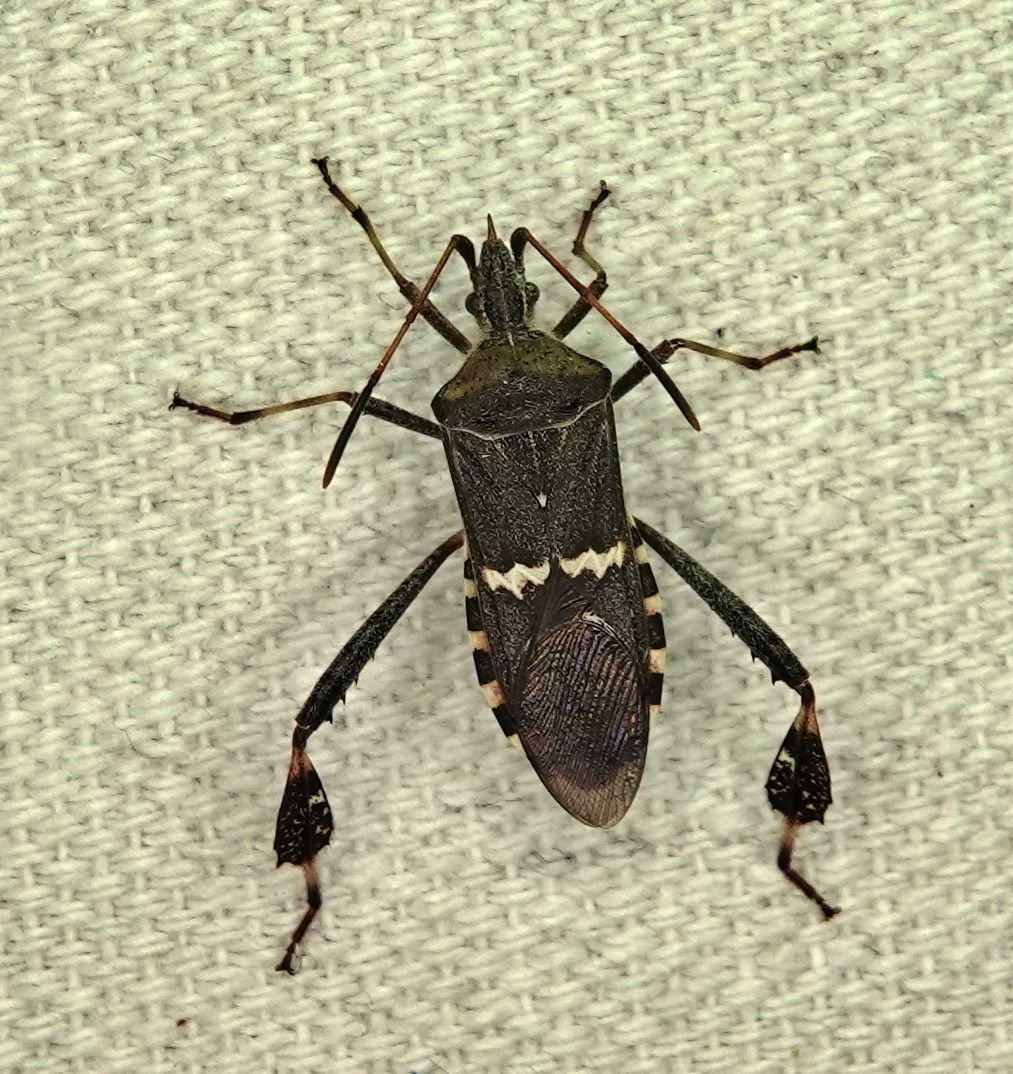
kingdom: Animalia
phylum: Arthropoda
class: Insecta
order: Hemiptera
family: Coreidae
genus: Leptoglossus
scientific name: Leptoglossus clypealis
